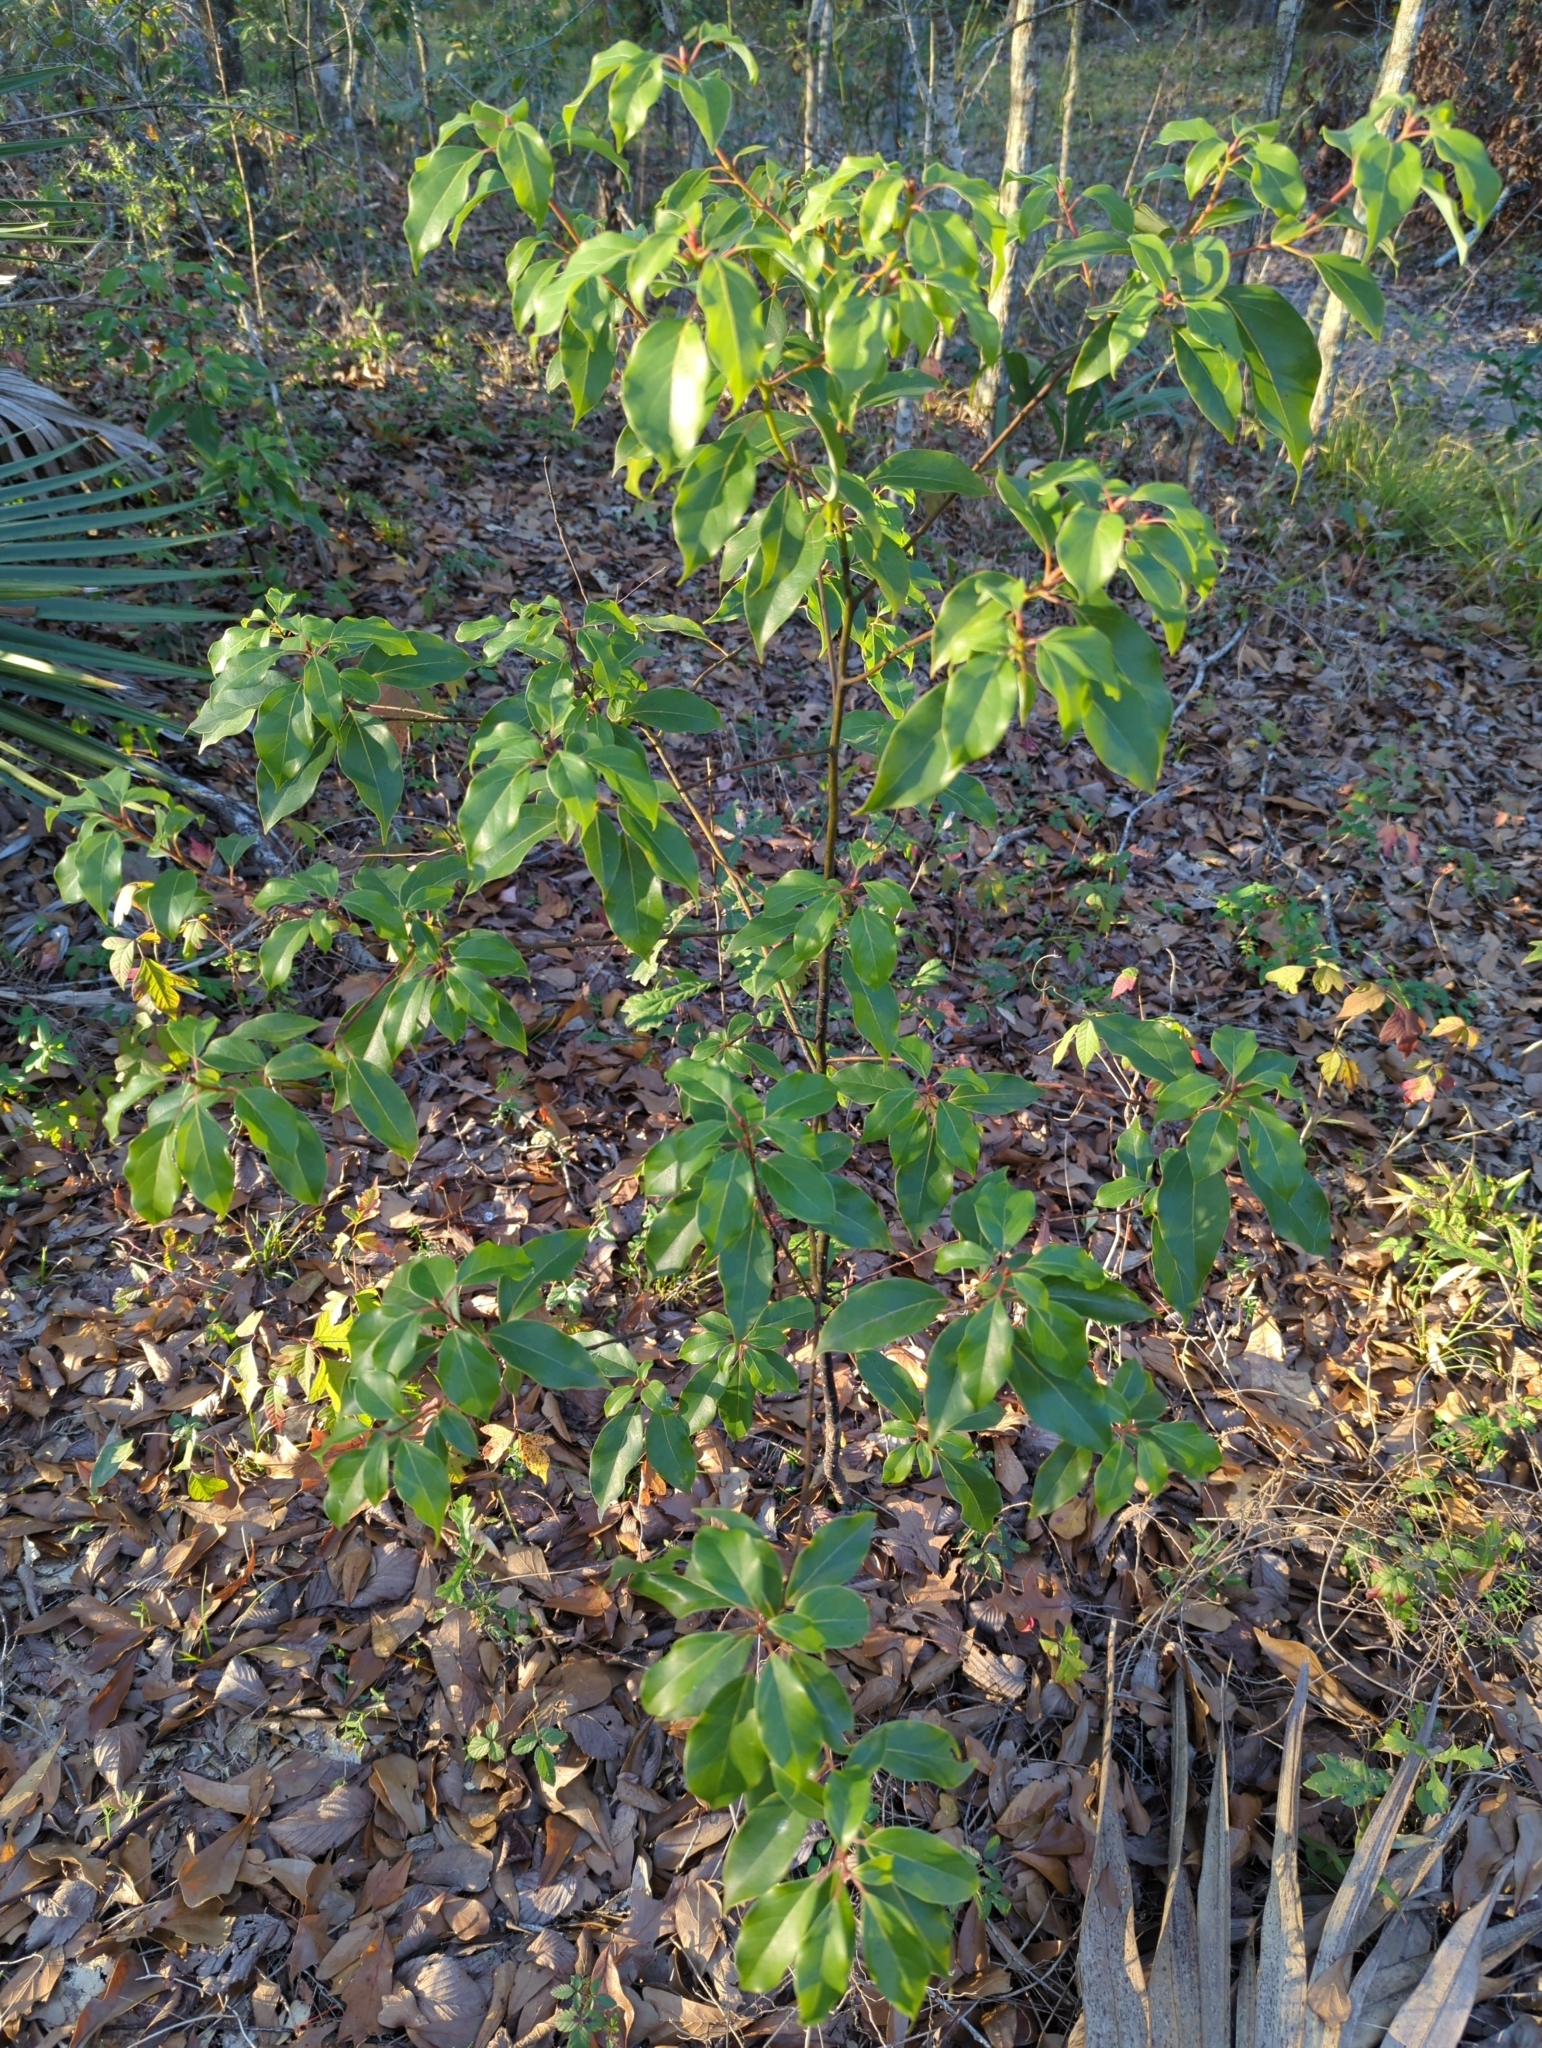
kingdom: Plantae
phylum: Tracheophyta
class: Magnoliopsida
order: Laurales
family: Lauraceae
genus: Cinnamomum
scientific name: Cinnamomum camphora
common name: Camphortree
